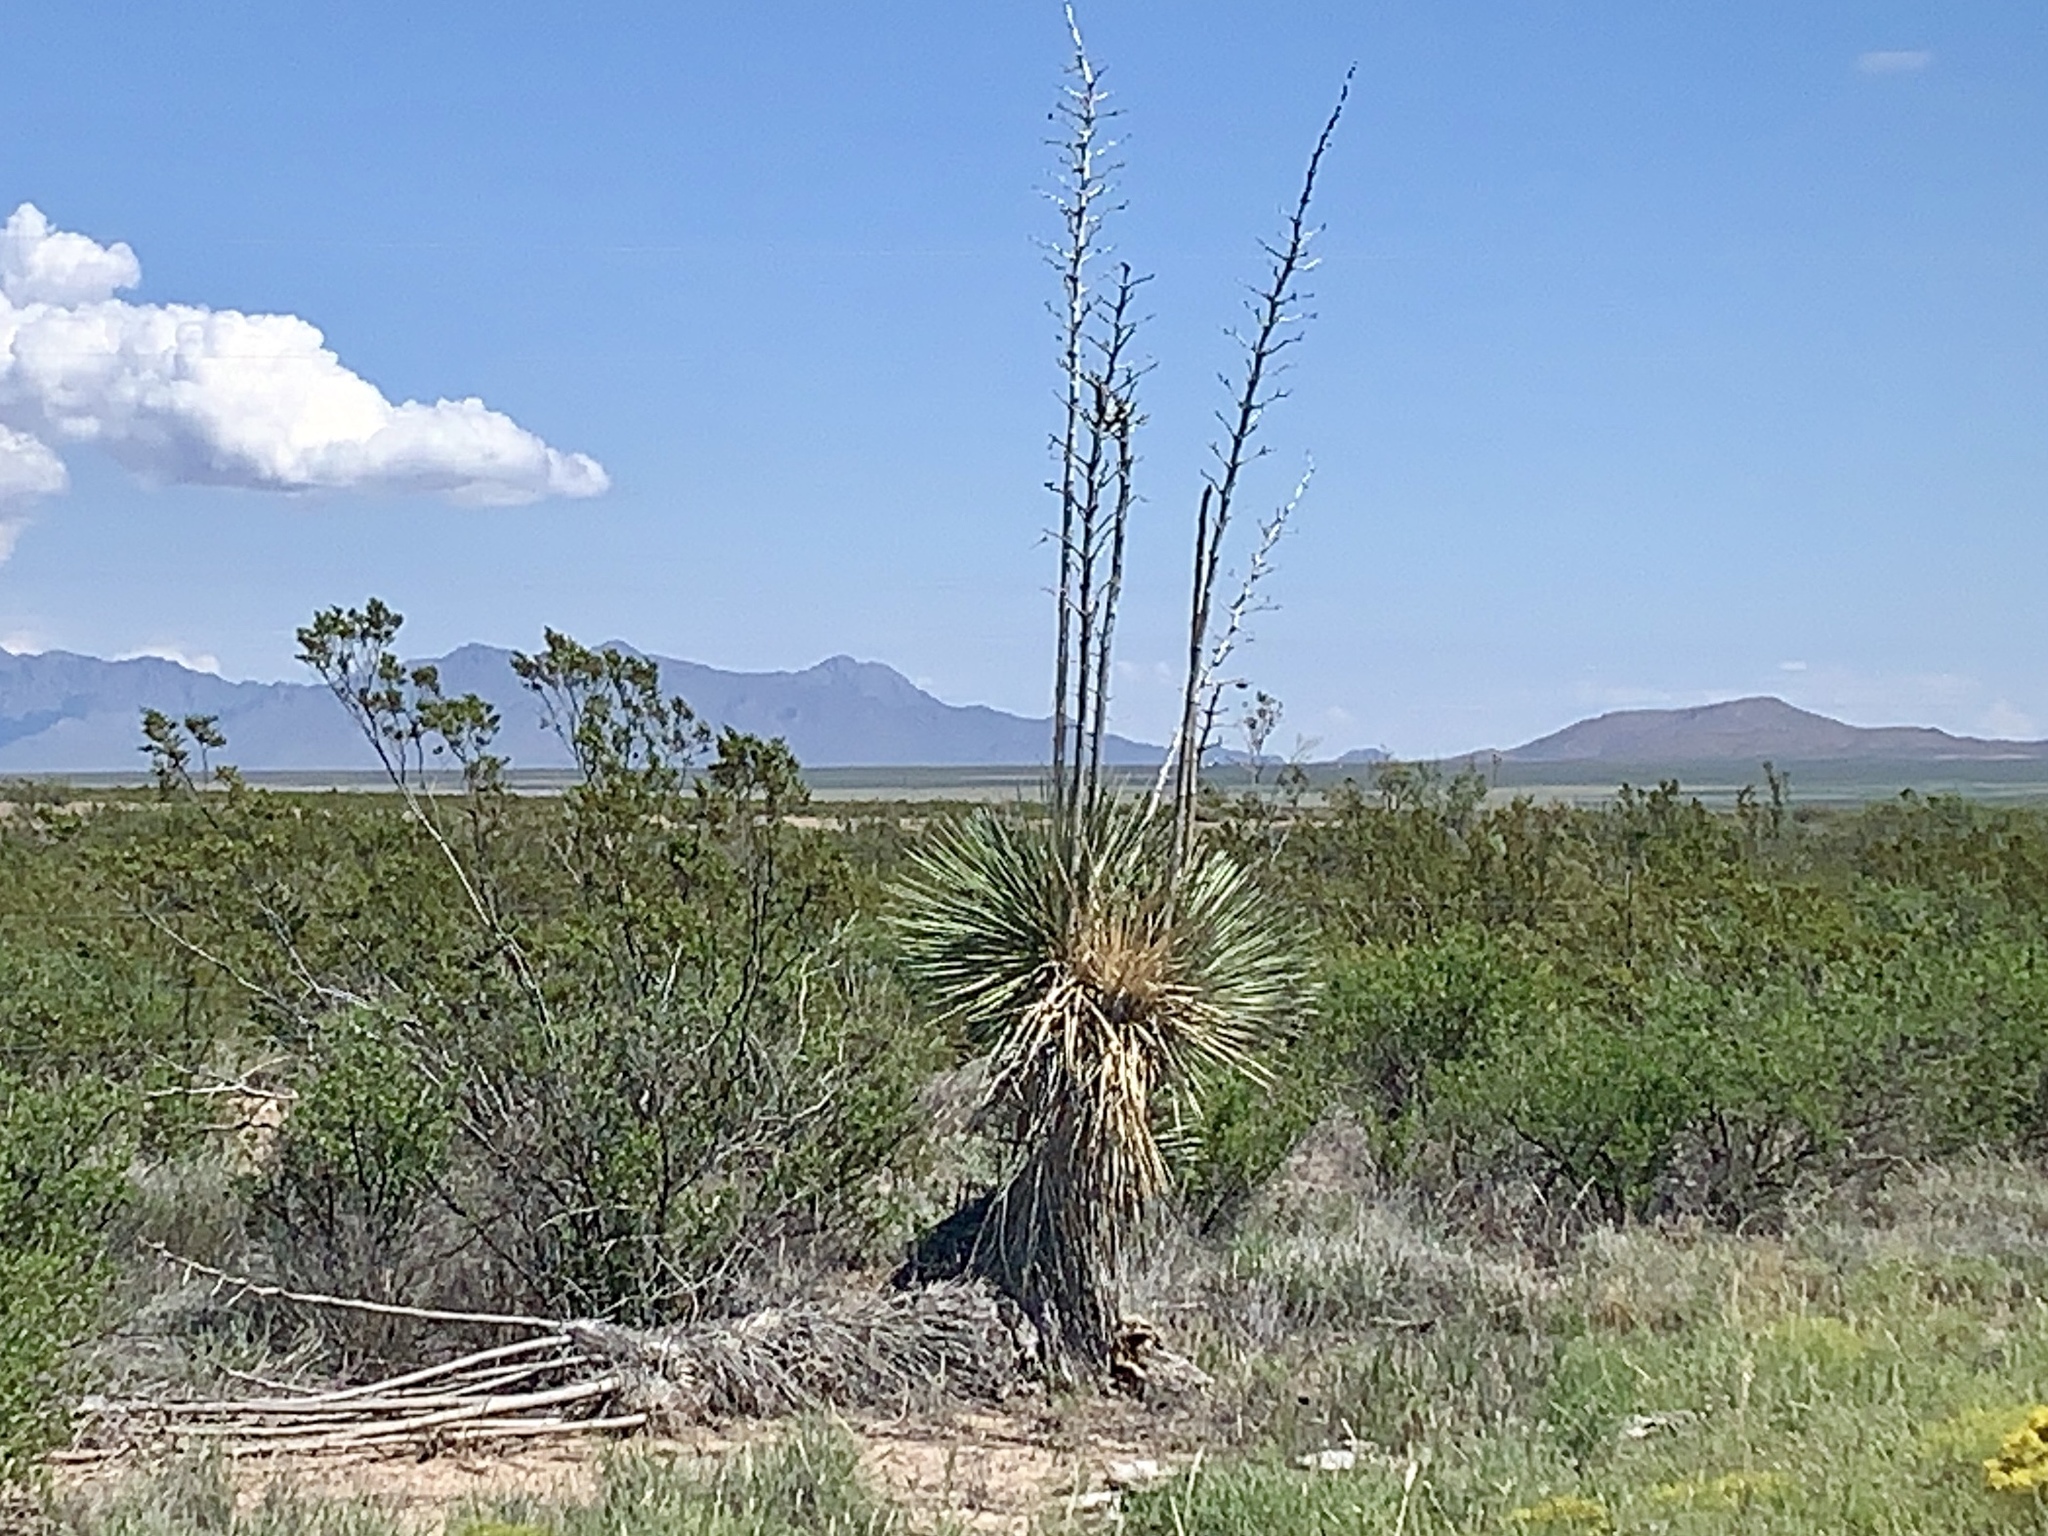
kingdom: Plantae
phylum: Tracheophyta
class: Liliopsida
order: Asparagales
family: Asparagaceae
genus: Yucca
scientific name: Yucca elata
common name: Palmella
